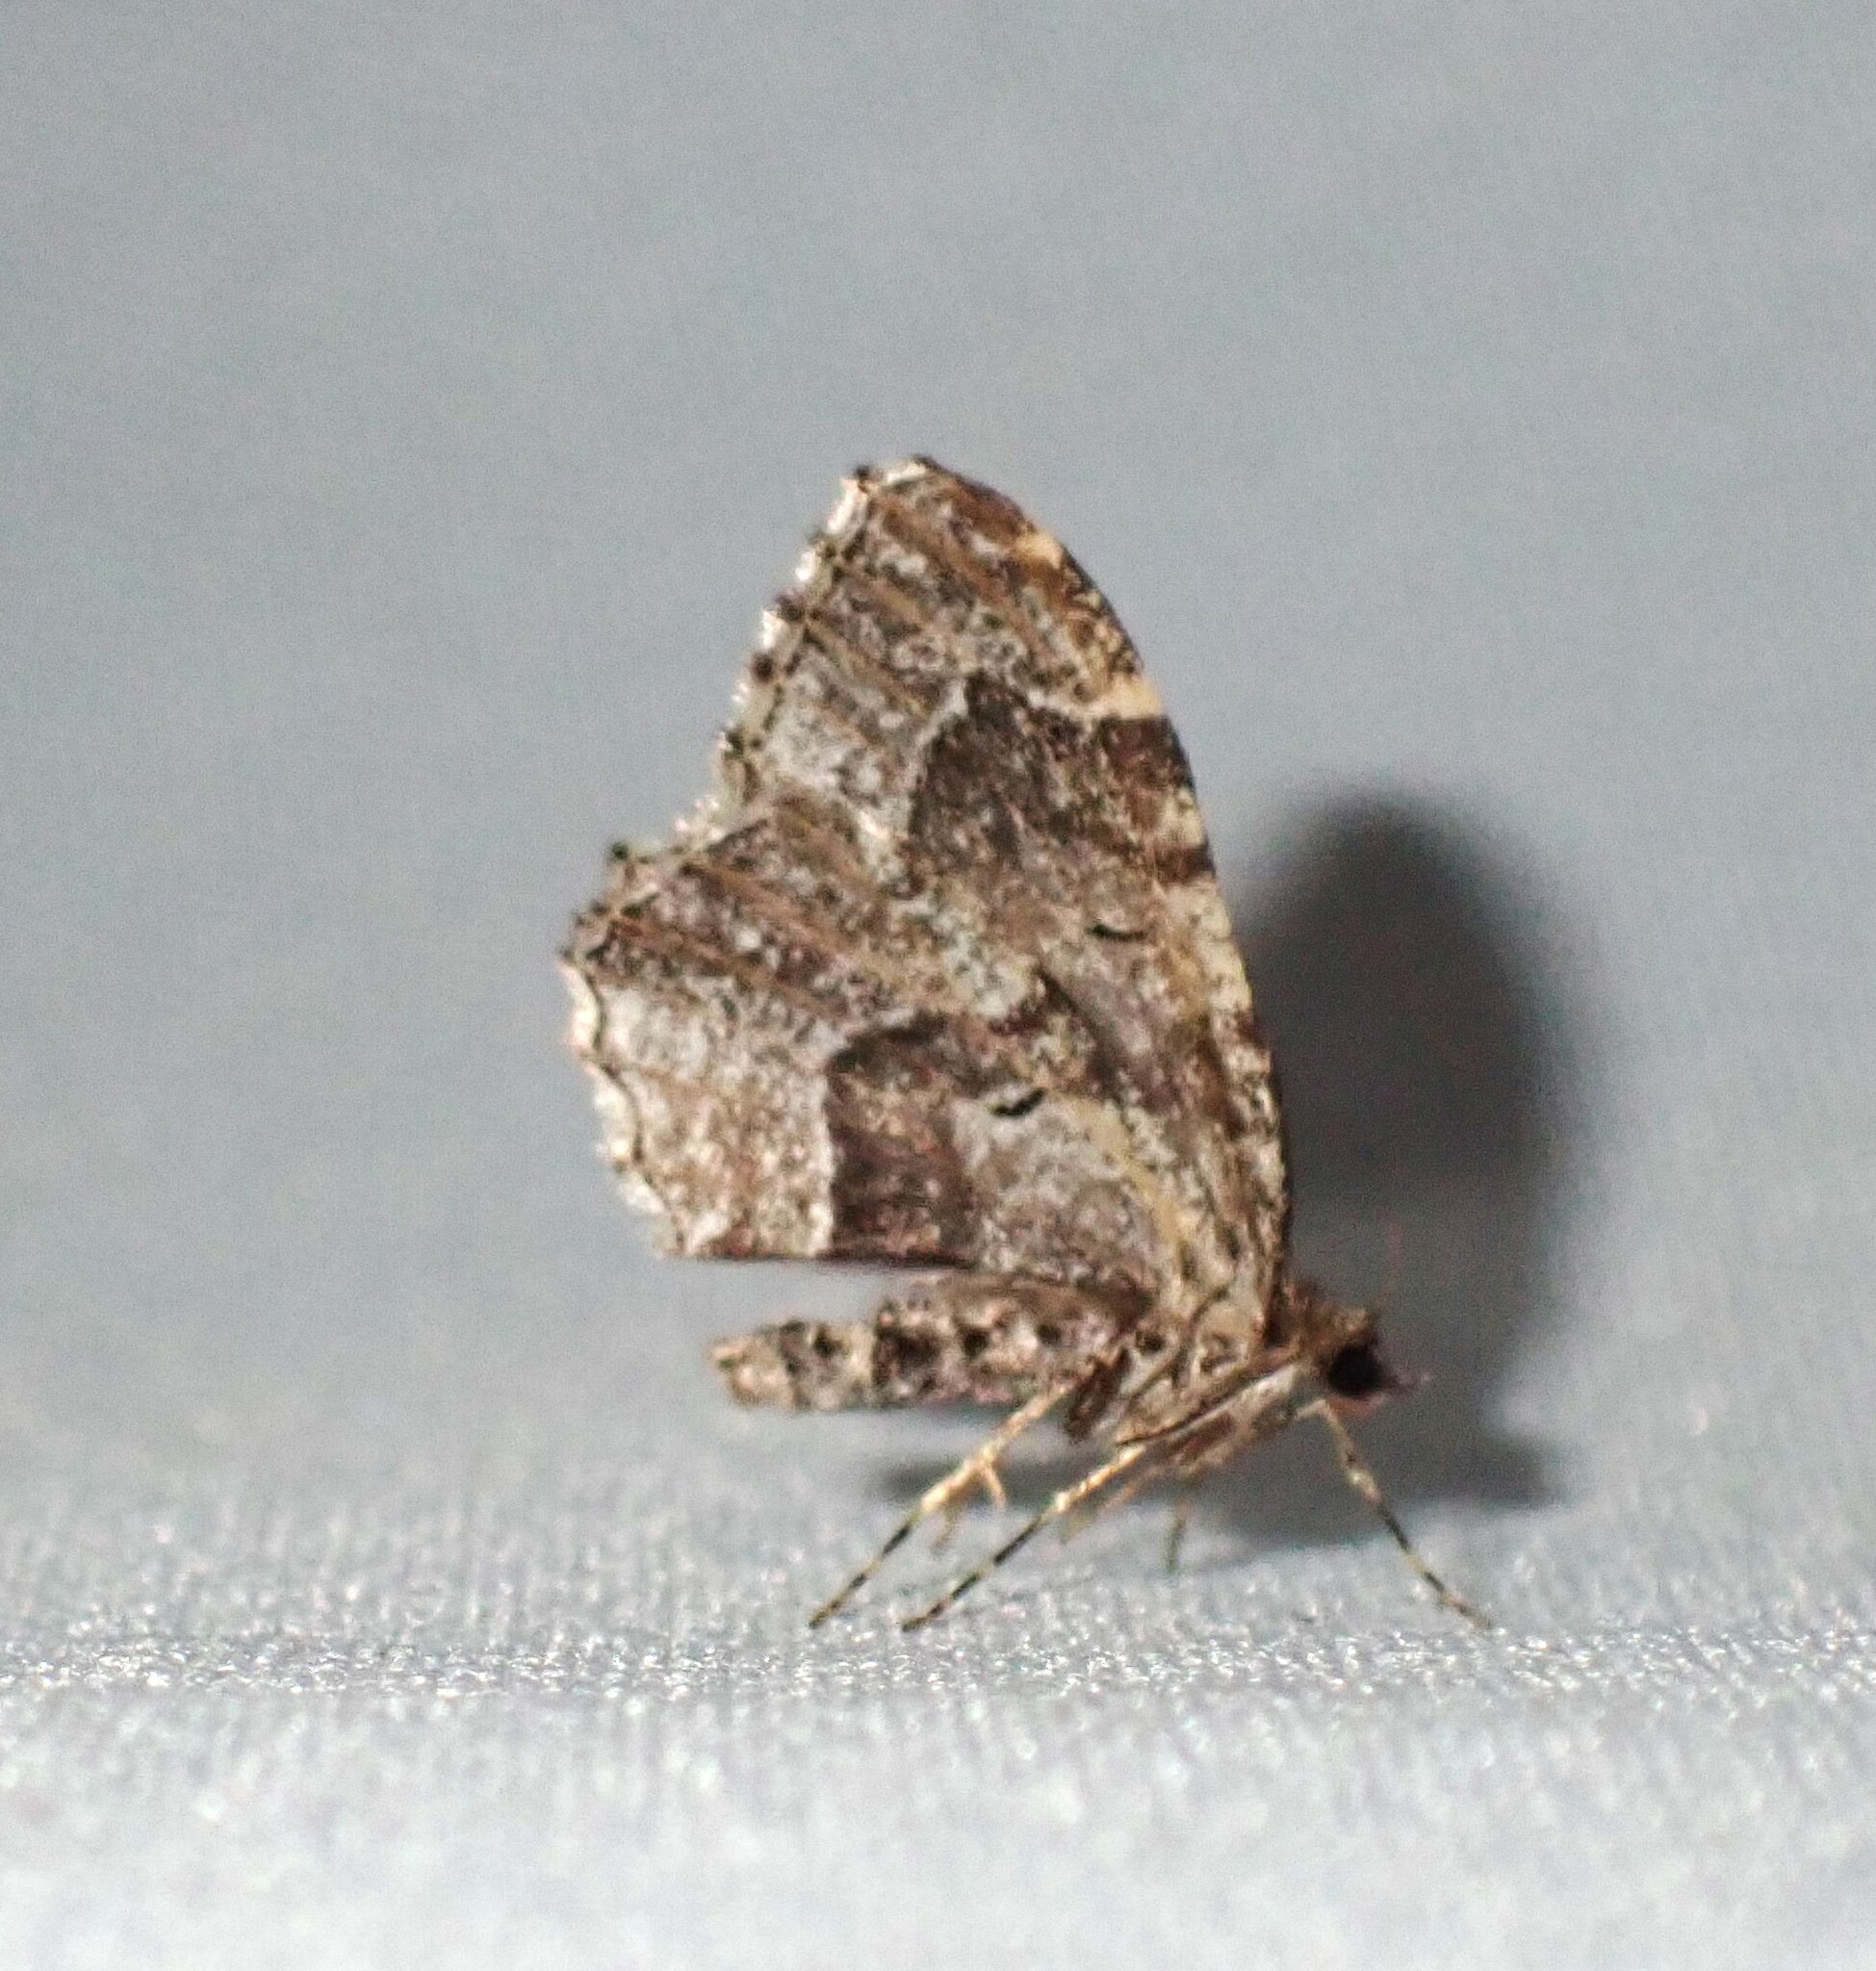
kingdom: Animalia
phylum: Arthropoda
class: Insecta
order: Lepidoptera
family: Geometridae
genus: Ceratodalia
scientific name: Ceratodalia gueneata
